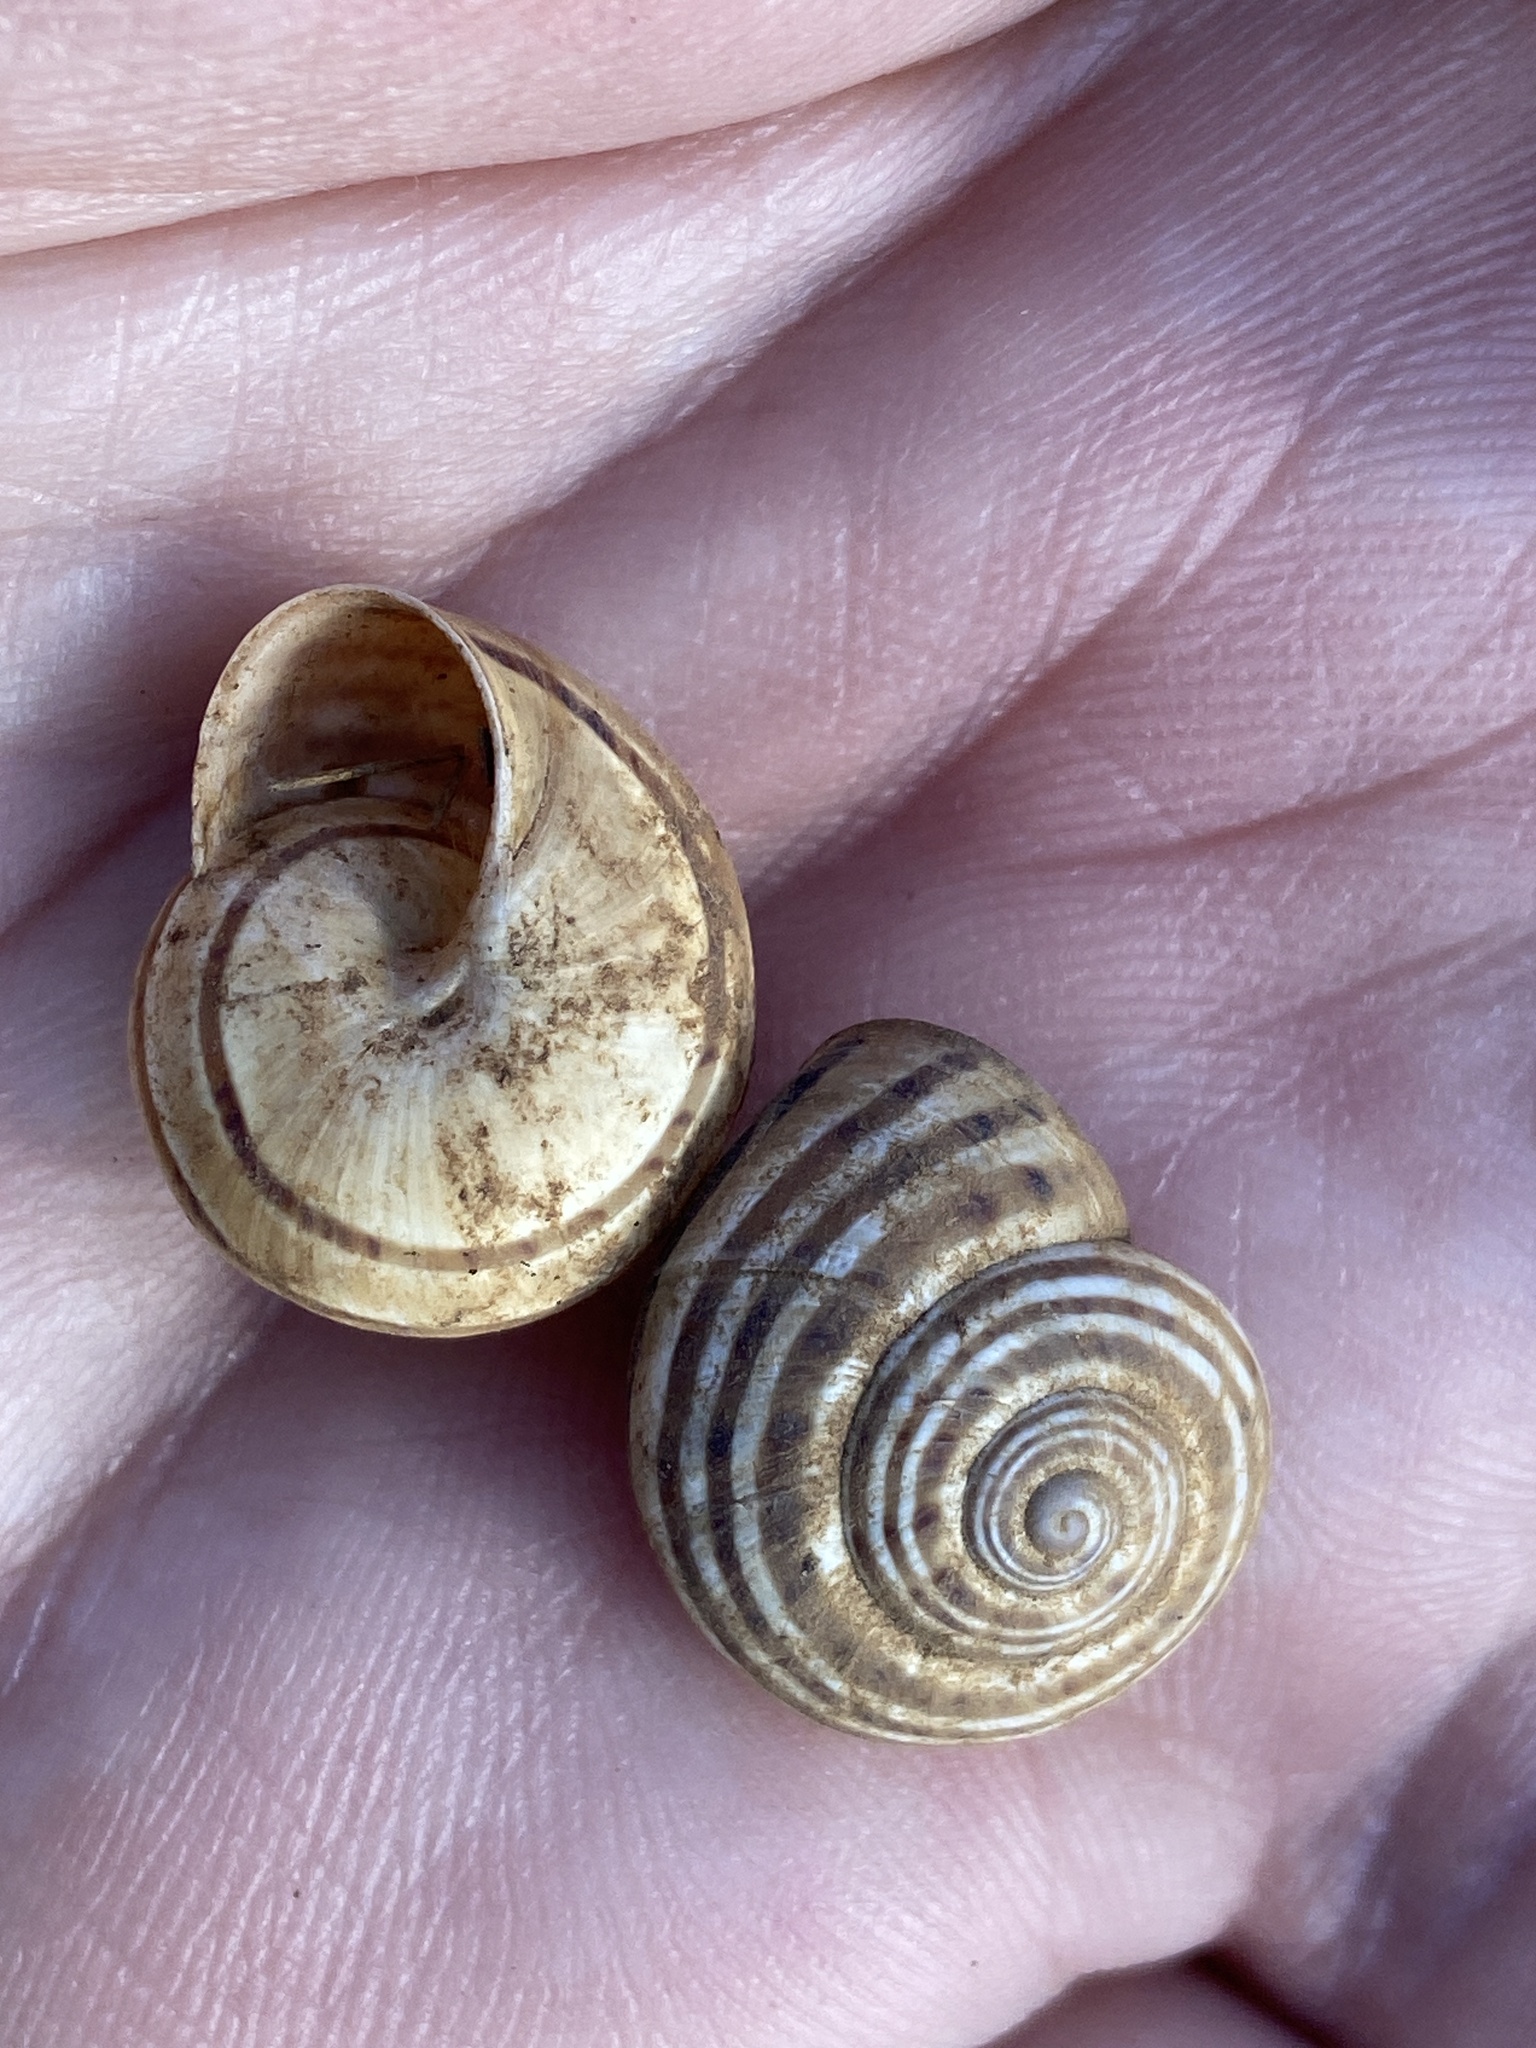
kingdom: Animalia
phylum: Mollusca
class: Gastropoda
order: Stylommatophora
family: Helicidae
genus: Pseudotachea
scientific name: Pseudotachea splendida
